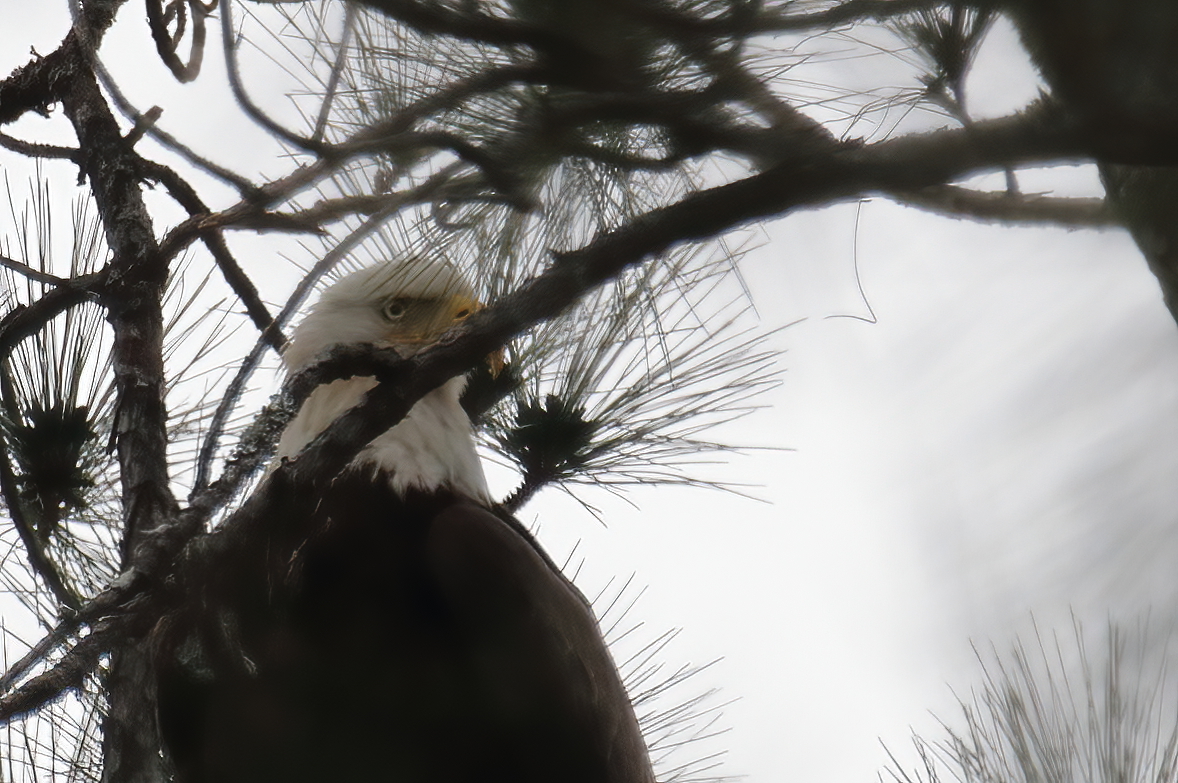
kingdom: Animalia
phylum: Chordata
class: Aves
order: Accipitriformes
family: Accipitridae
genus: Haliaeetus
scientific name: Haliaeetus leucocephalus
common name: Bald eagle
